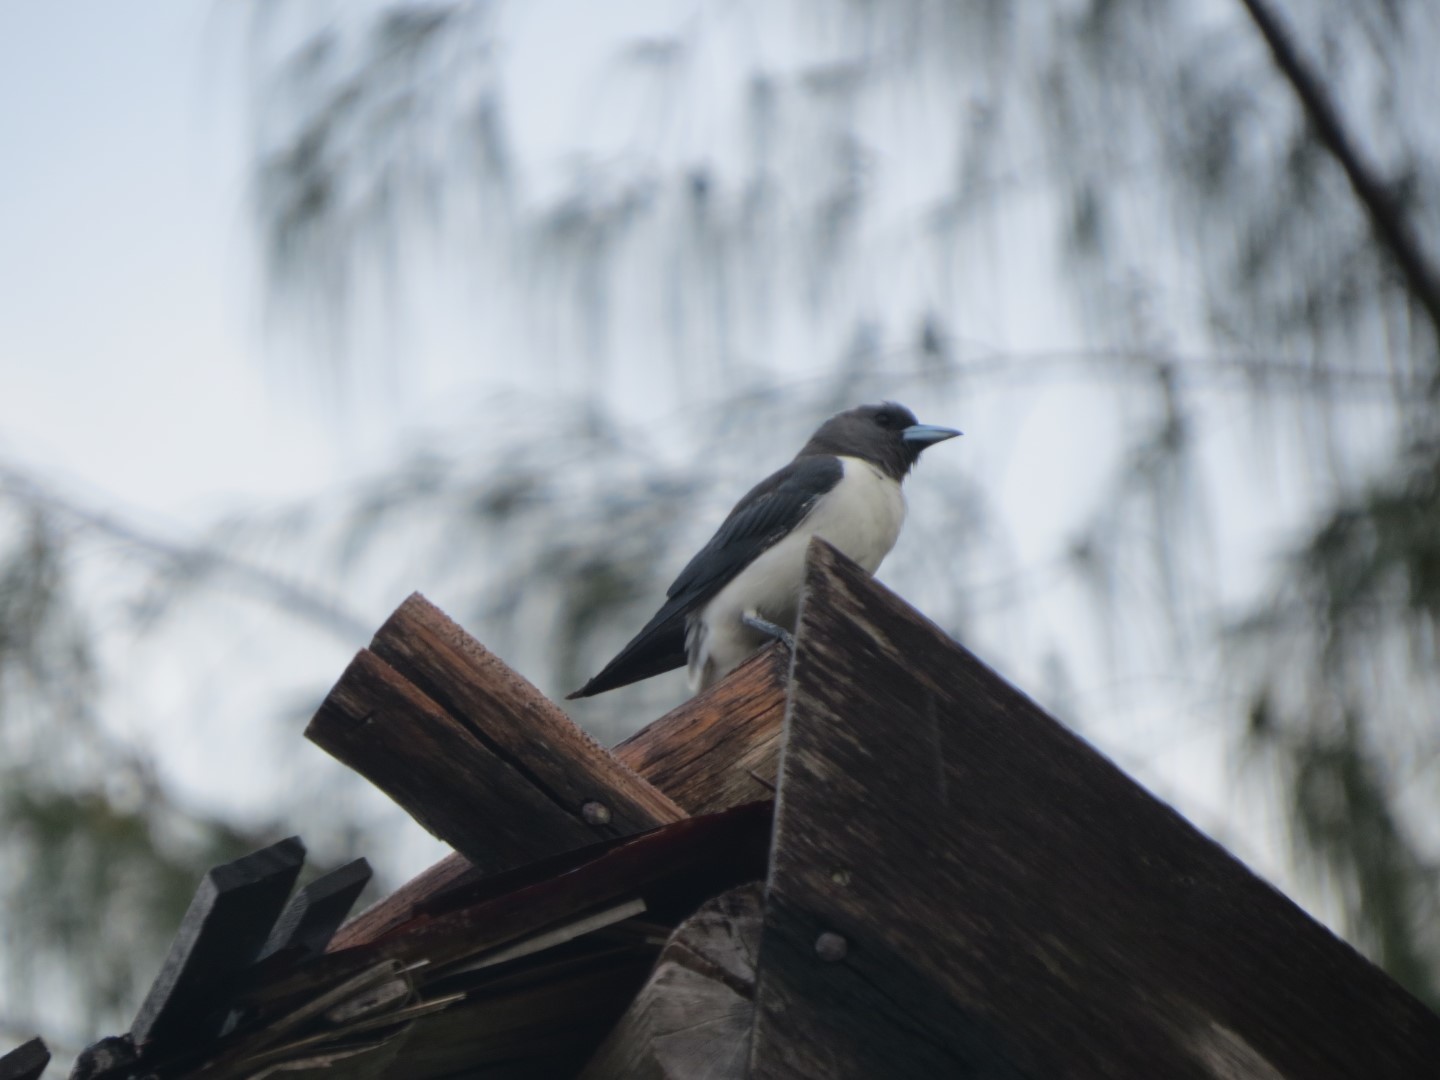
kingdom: Animalia
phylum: Chordata
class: Aves
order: Passeriformes
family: Artamidae
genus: Artamus
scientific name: Artamus leucoryn
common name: White-breasted woodswallow
